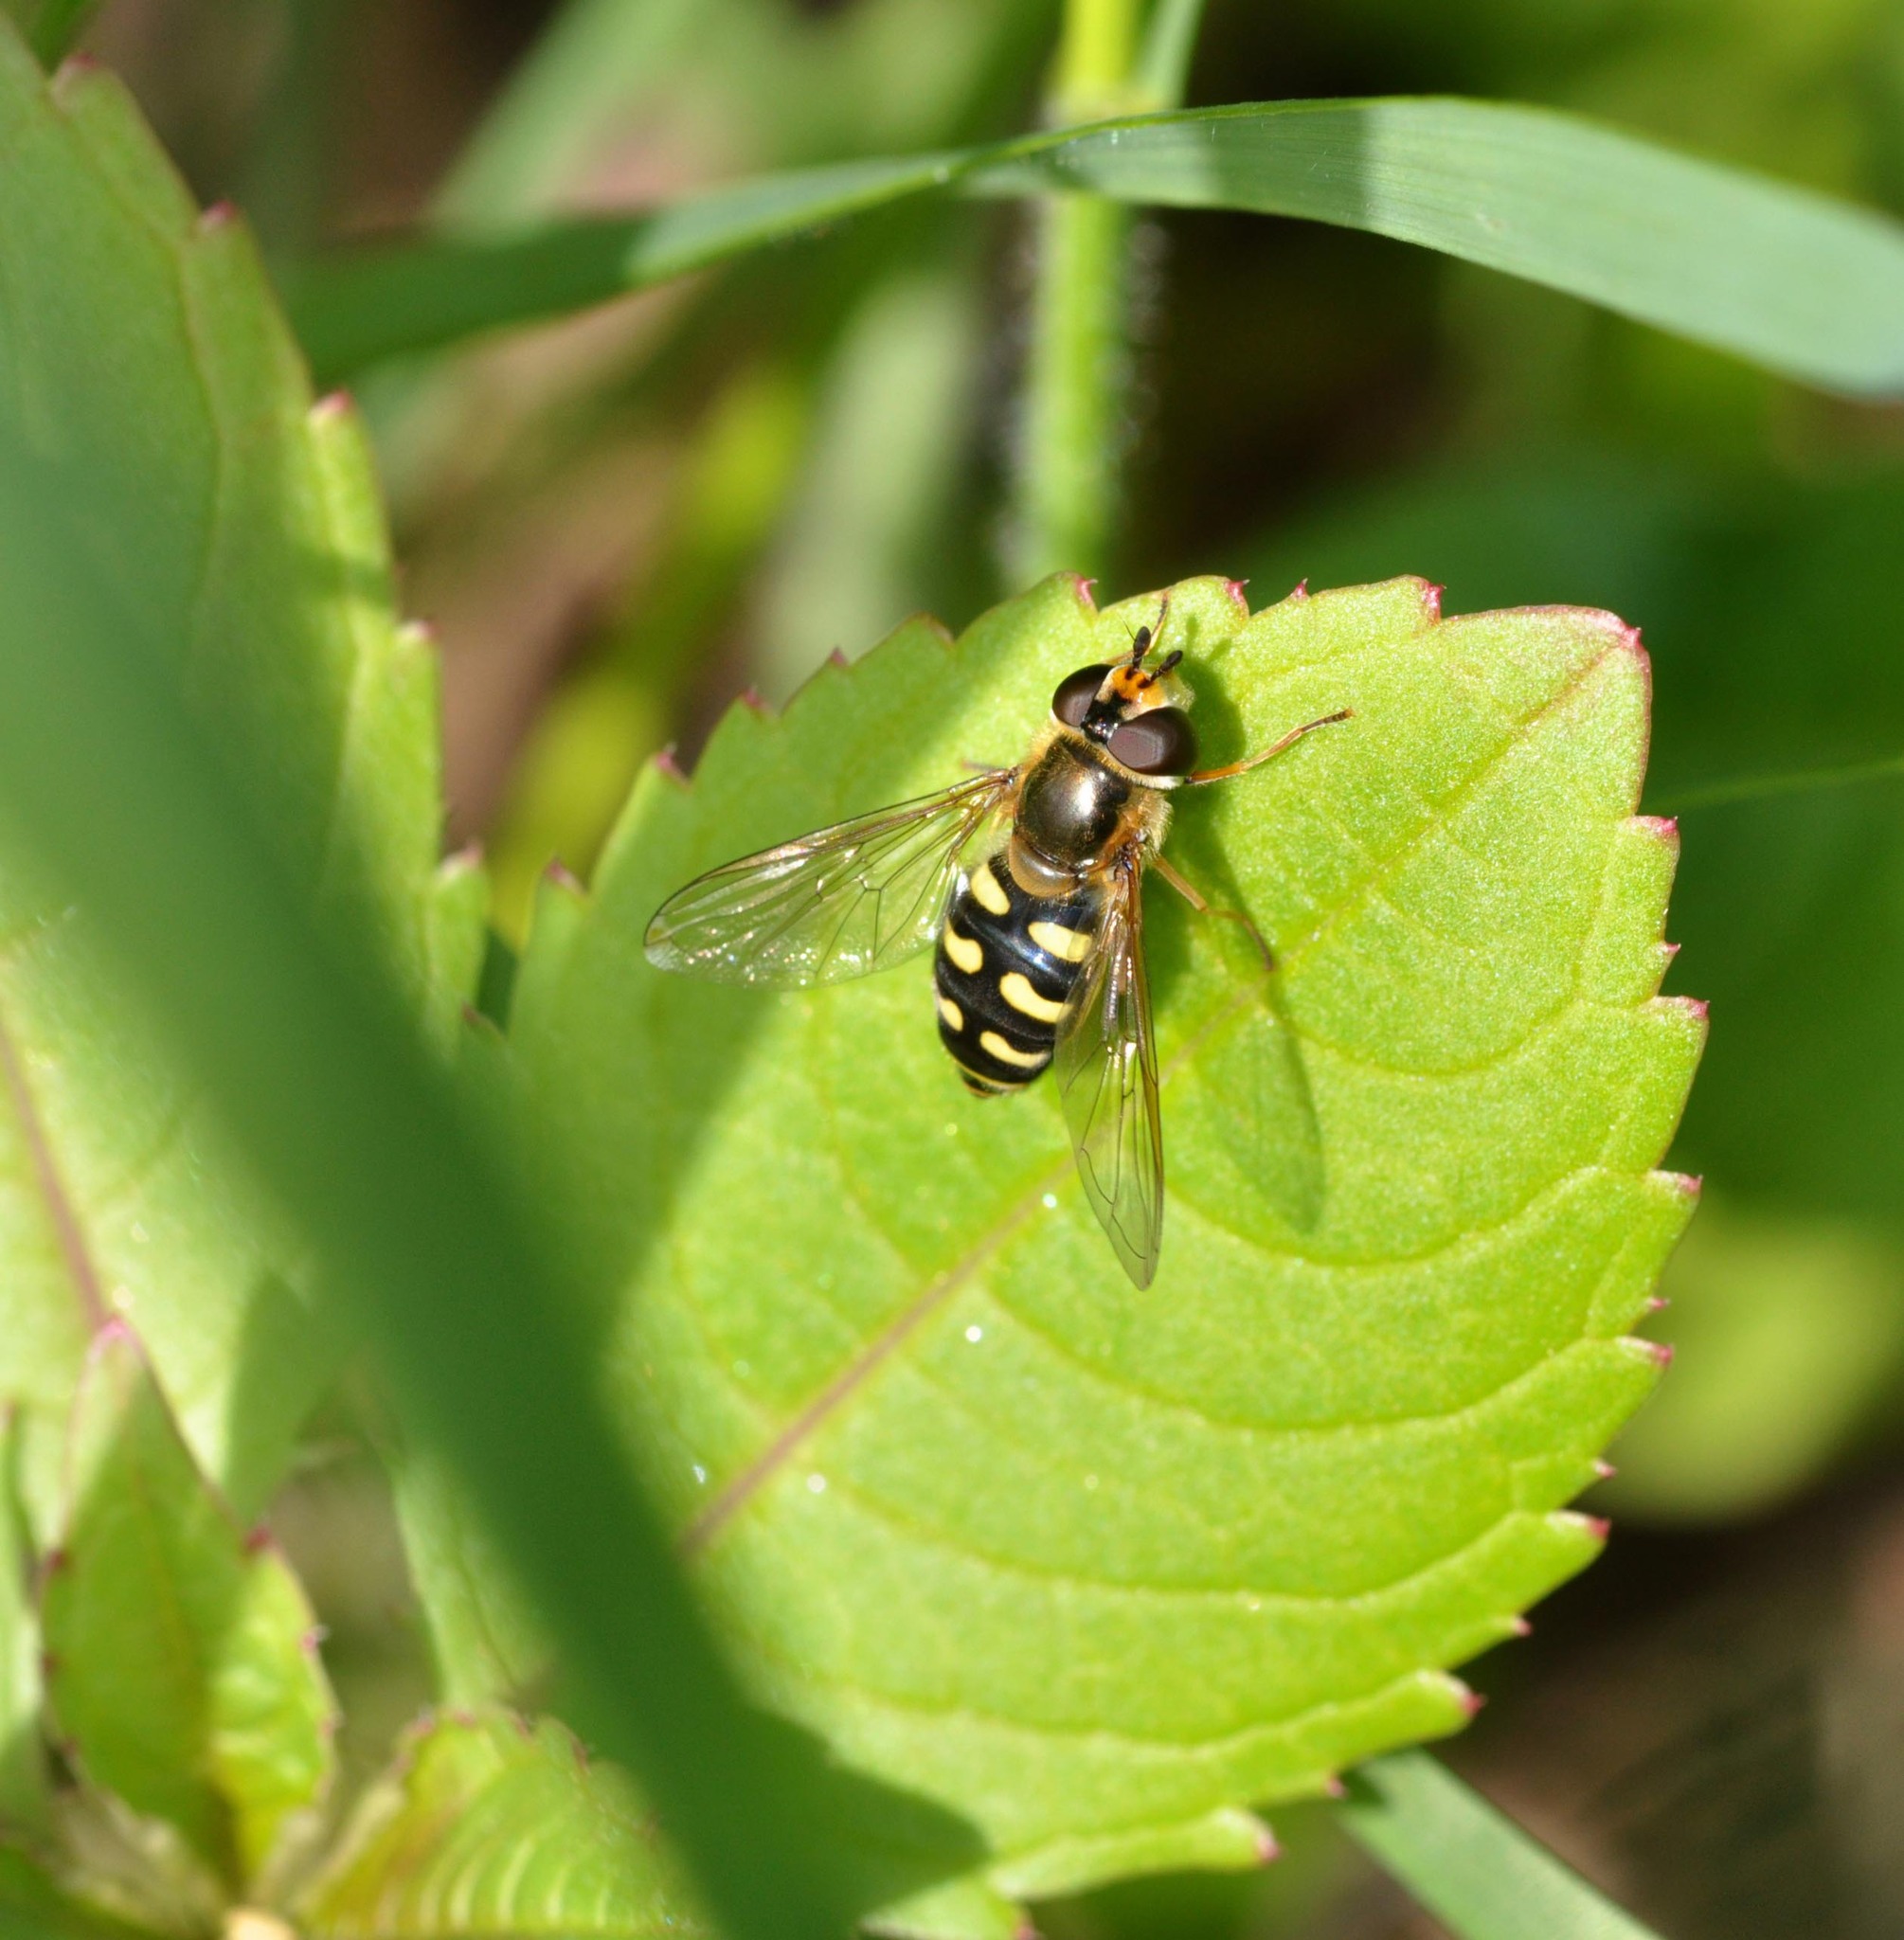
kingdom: Animalia
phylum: Arthropoda
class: Insecta
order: Diptera
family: Syrphidae
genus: Eupeodes
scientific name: Eupeodes luniger
